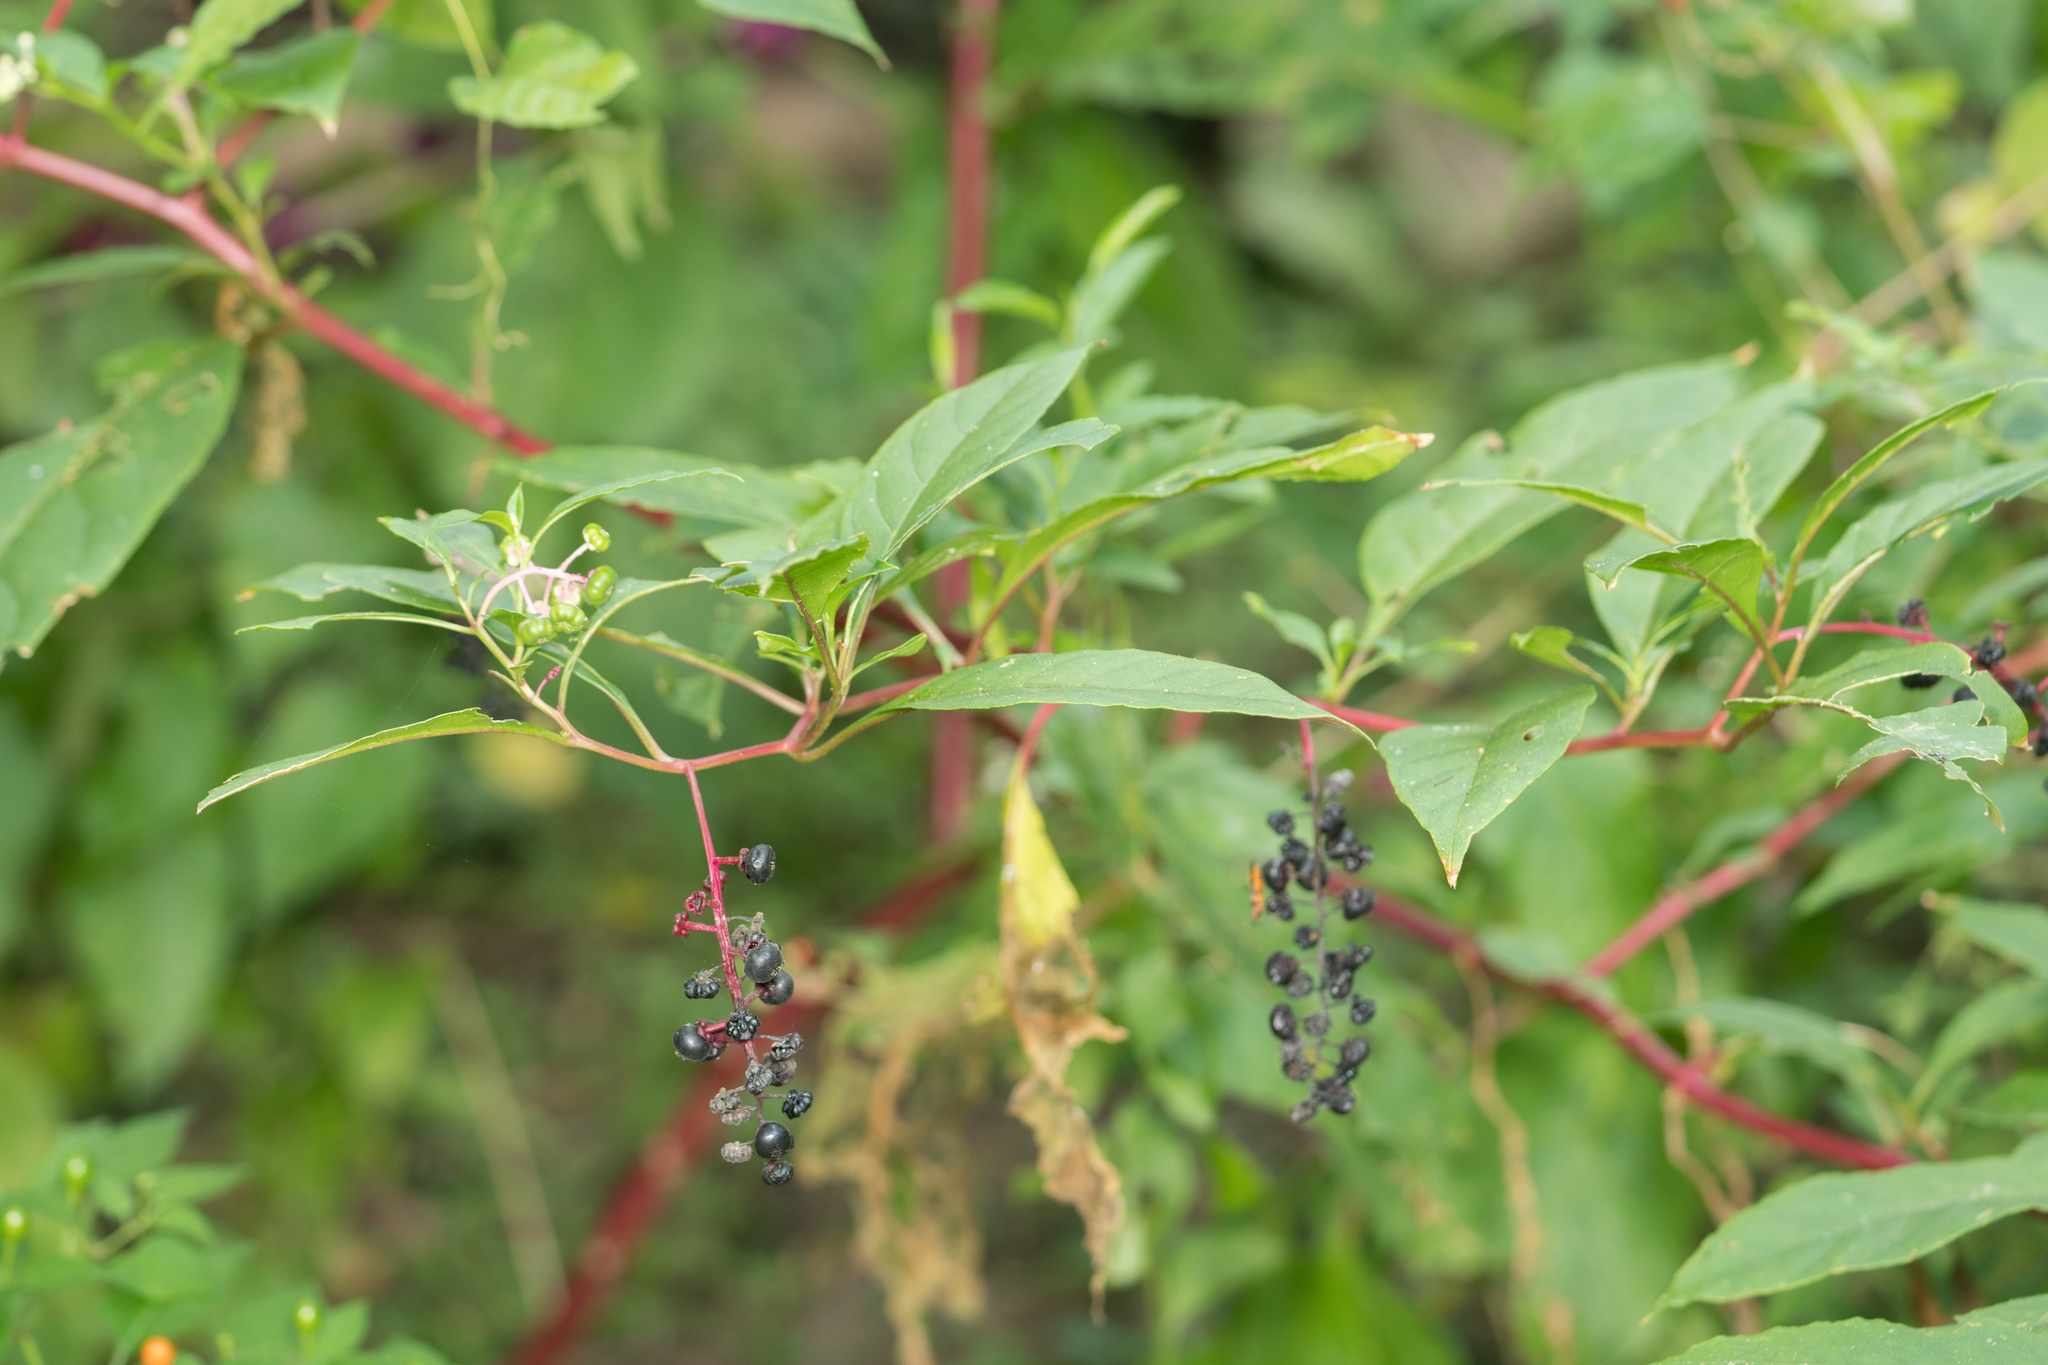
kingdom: Plantae
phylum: Tracheophyta
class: Magnoliopsida
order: Caryophyllales
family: Phytolaccaceae
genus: Phytolacca
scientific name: Phytolacca americana
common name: American pokeweed
